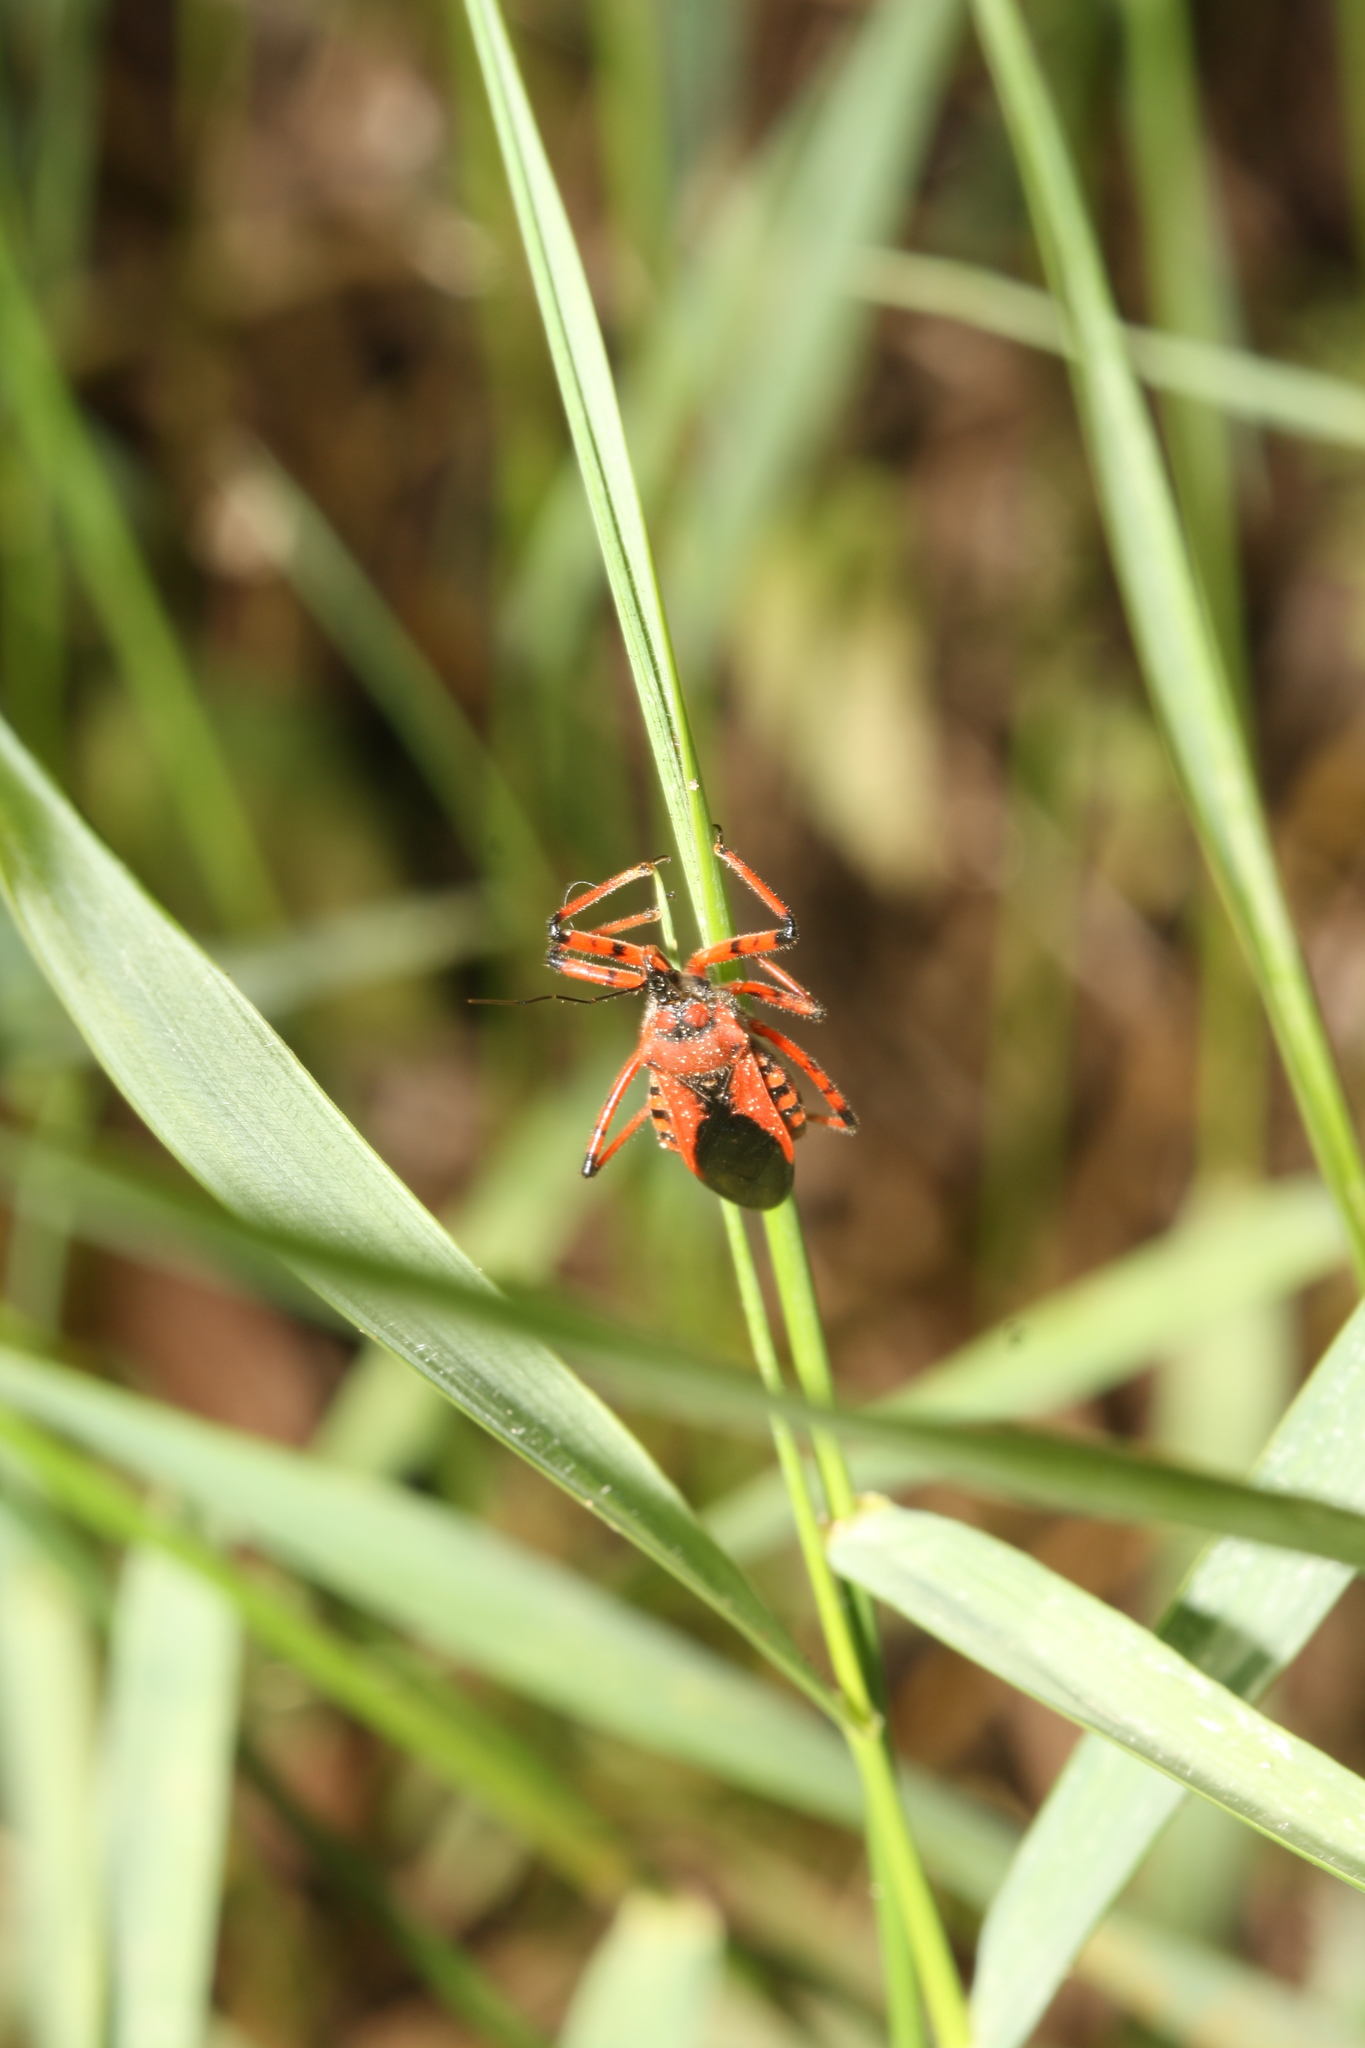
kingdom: Animalia
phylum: Arthropoda
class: Insecta
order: Hemiptera
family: Reduviidae
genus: Rhynocoris
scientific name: Rhynocoris iracundus
